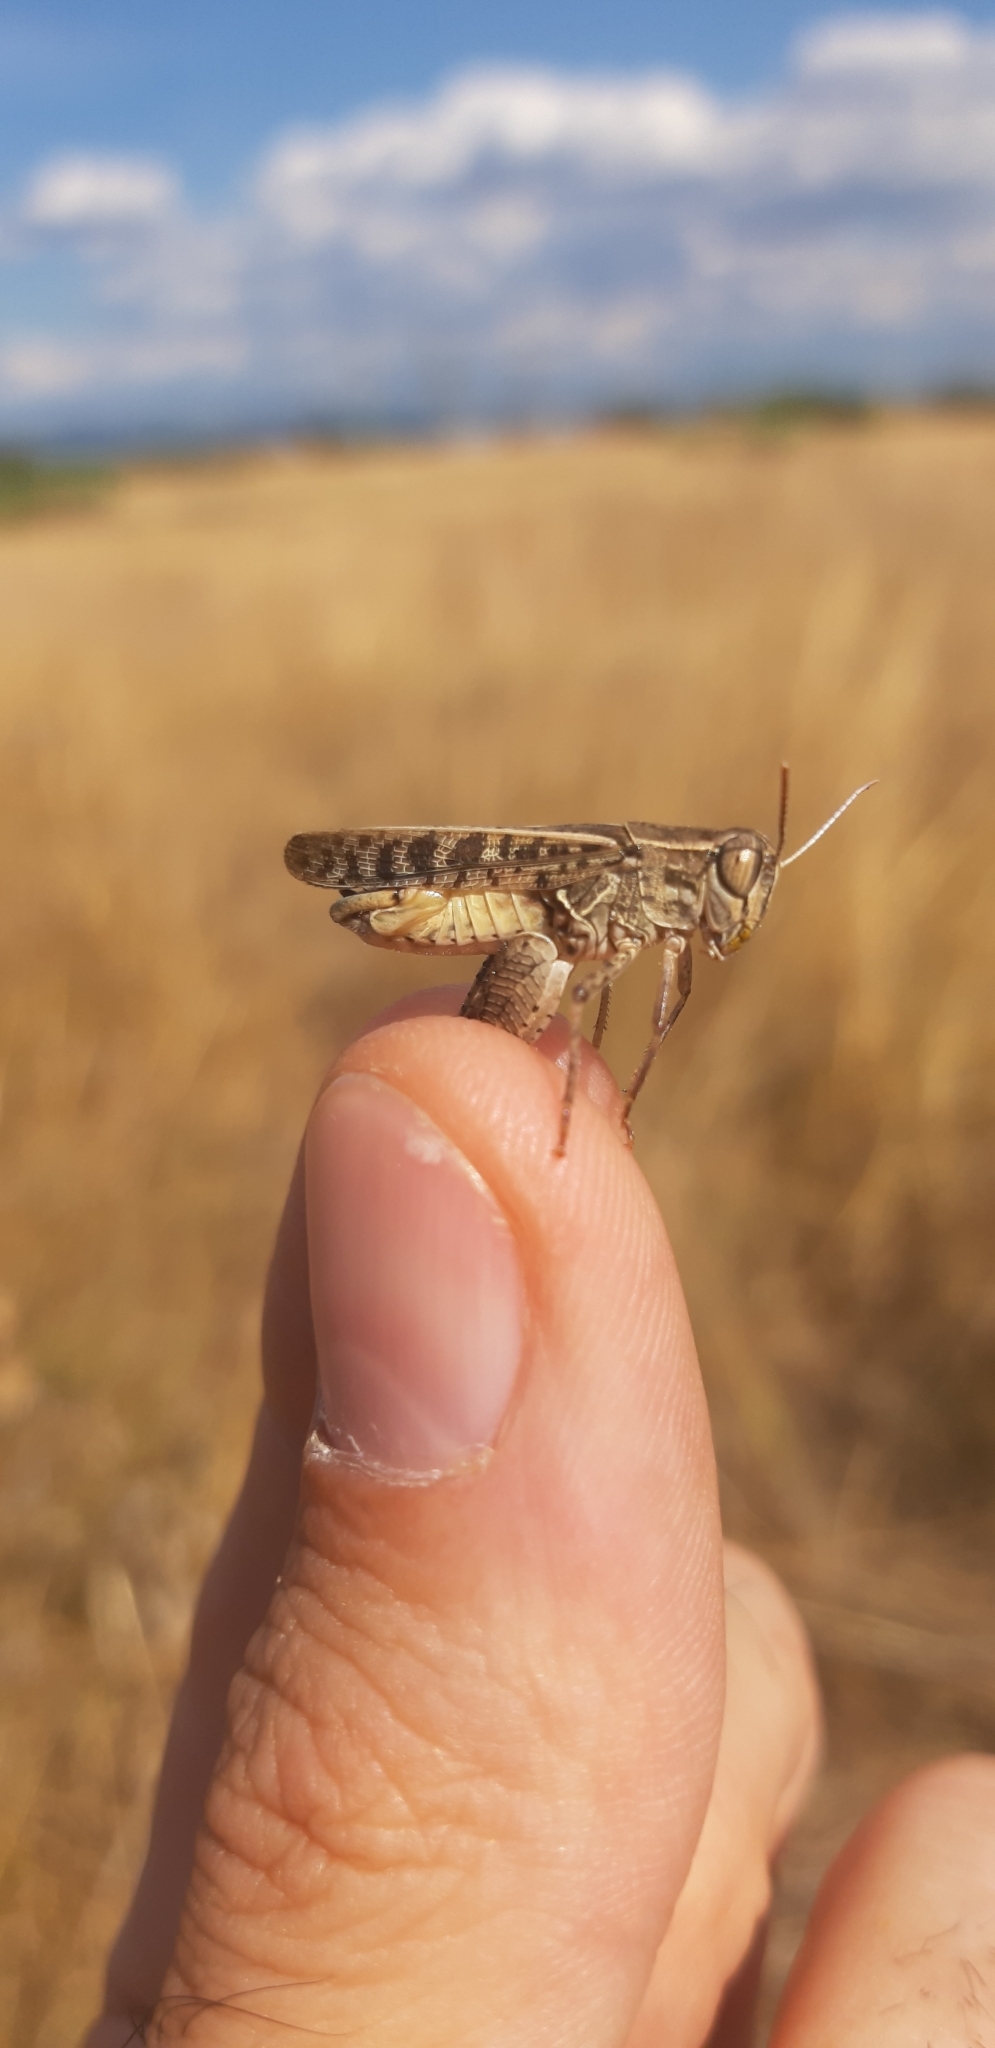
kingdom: Animalia
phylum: Arthropoda
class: Insecta
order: Orthoptera
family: Acrididae
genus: Calliptamus
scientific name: Calliptamus italicus
